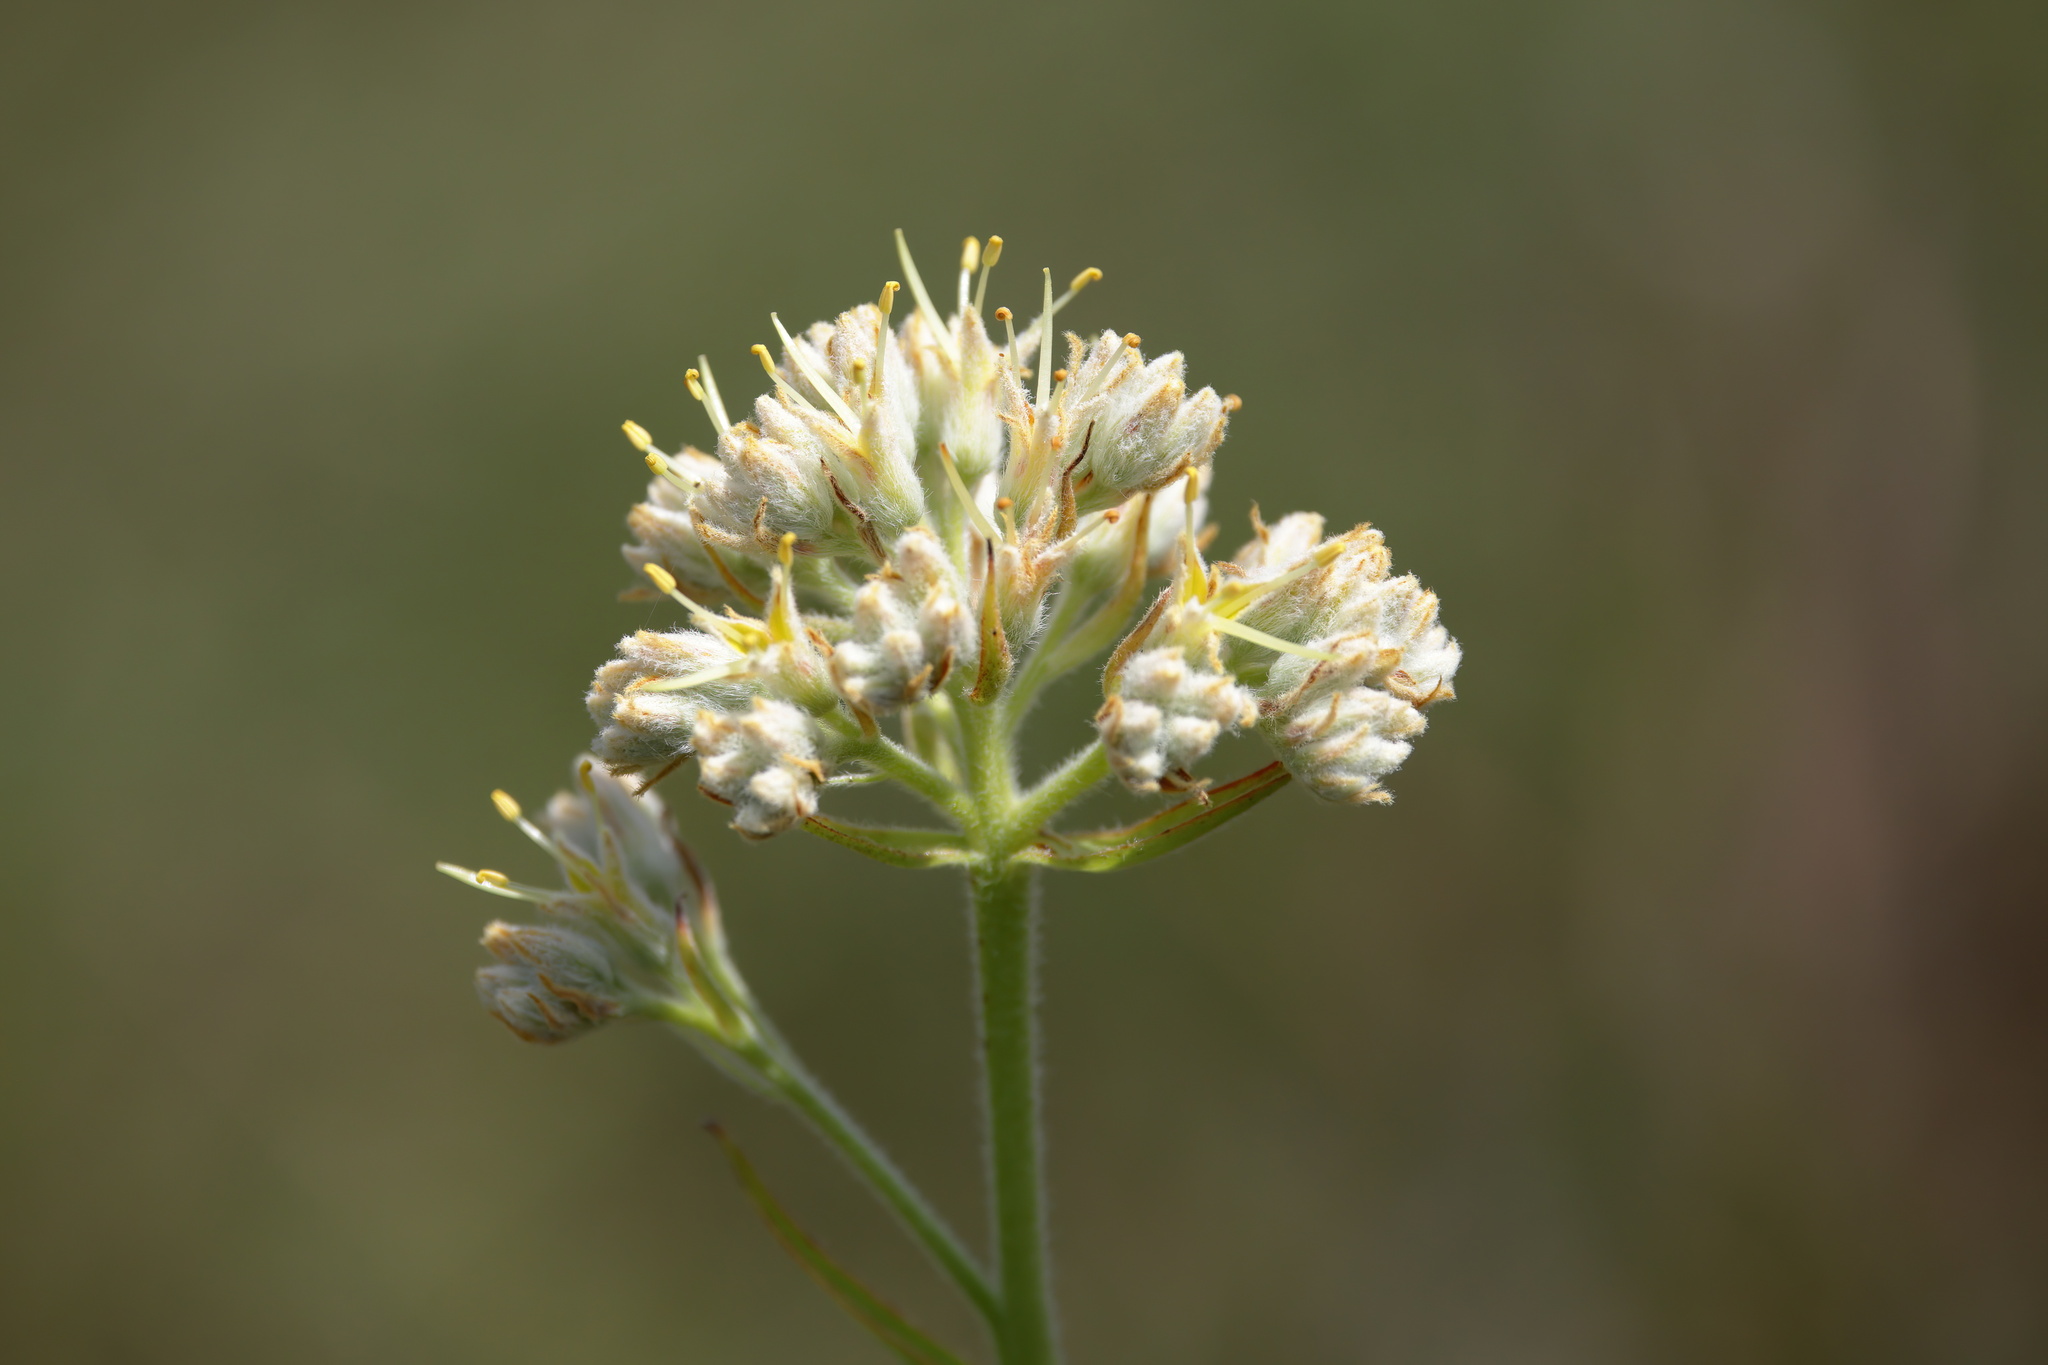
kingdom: Plantae
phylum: Tracheophyta
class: Liliopsida
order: Commelinales
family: Haemodoraceae
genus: Lachnanthes
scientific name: Lachnanthes caroliana
